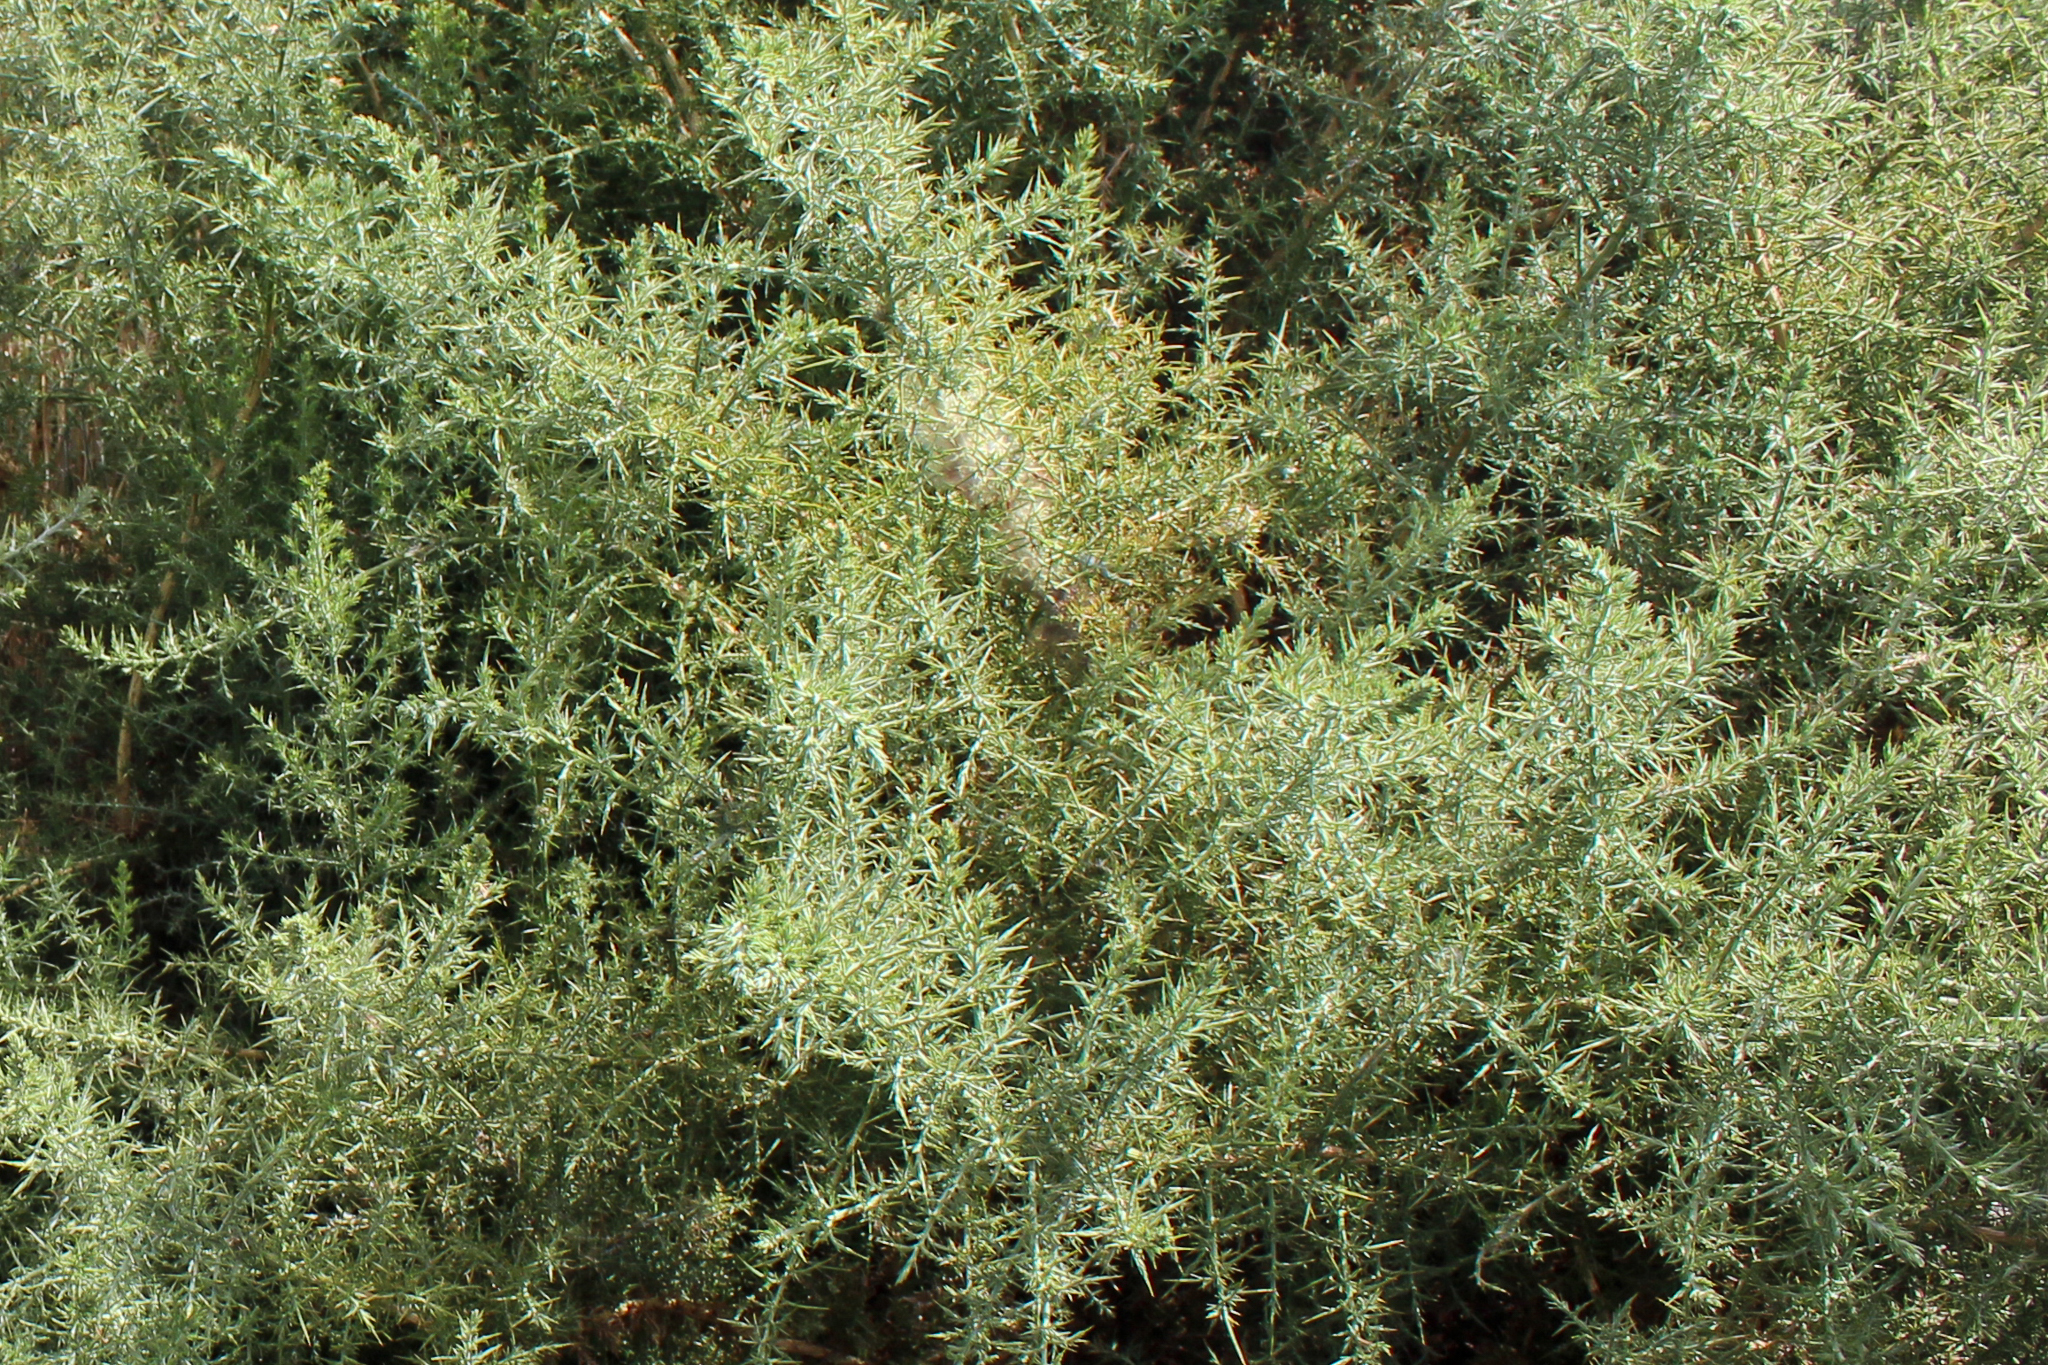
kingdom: Plantae
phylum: Tracheophyta
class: Magnoliopsida
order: Fabales
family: Fabaceae
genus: Ulex
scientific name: Ulex europaeus
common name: Common gorse
